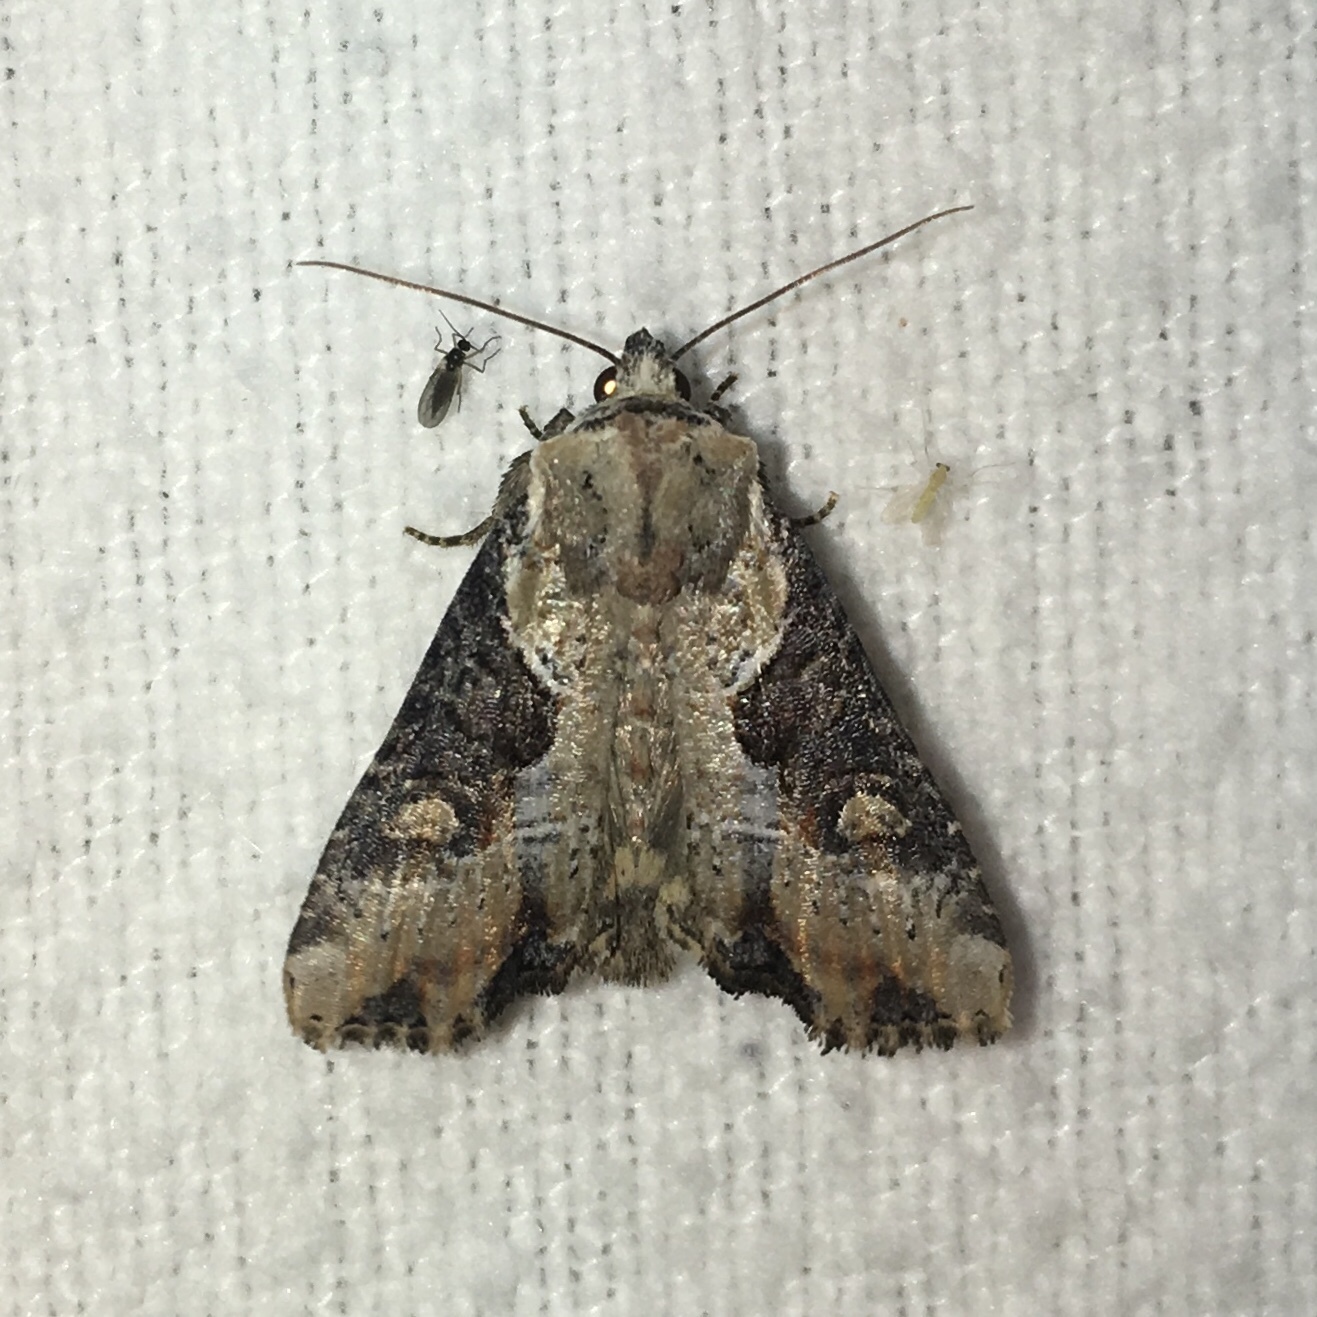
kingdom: Animalia
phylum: Arthropoda
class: Insecta
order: Lepidoptera
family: Noctuidae
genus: Lateroligia
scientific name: Lateroligia ophiogramma
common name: Double lobed
